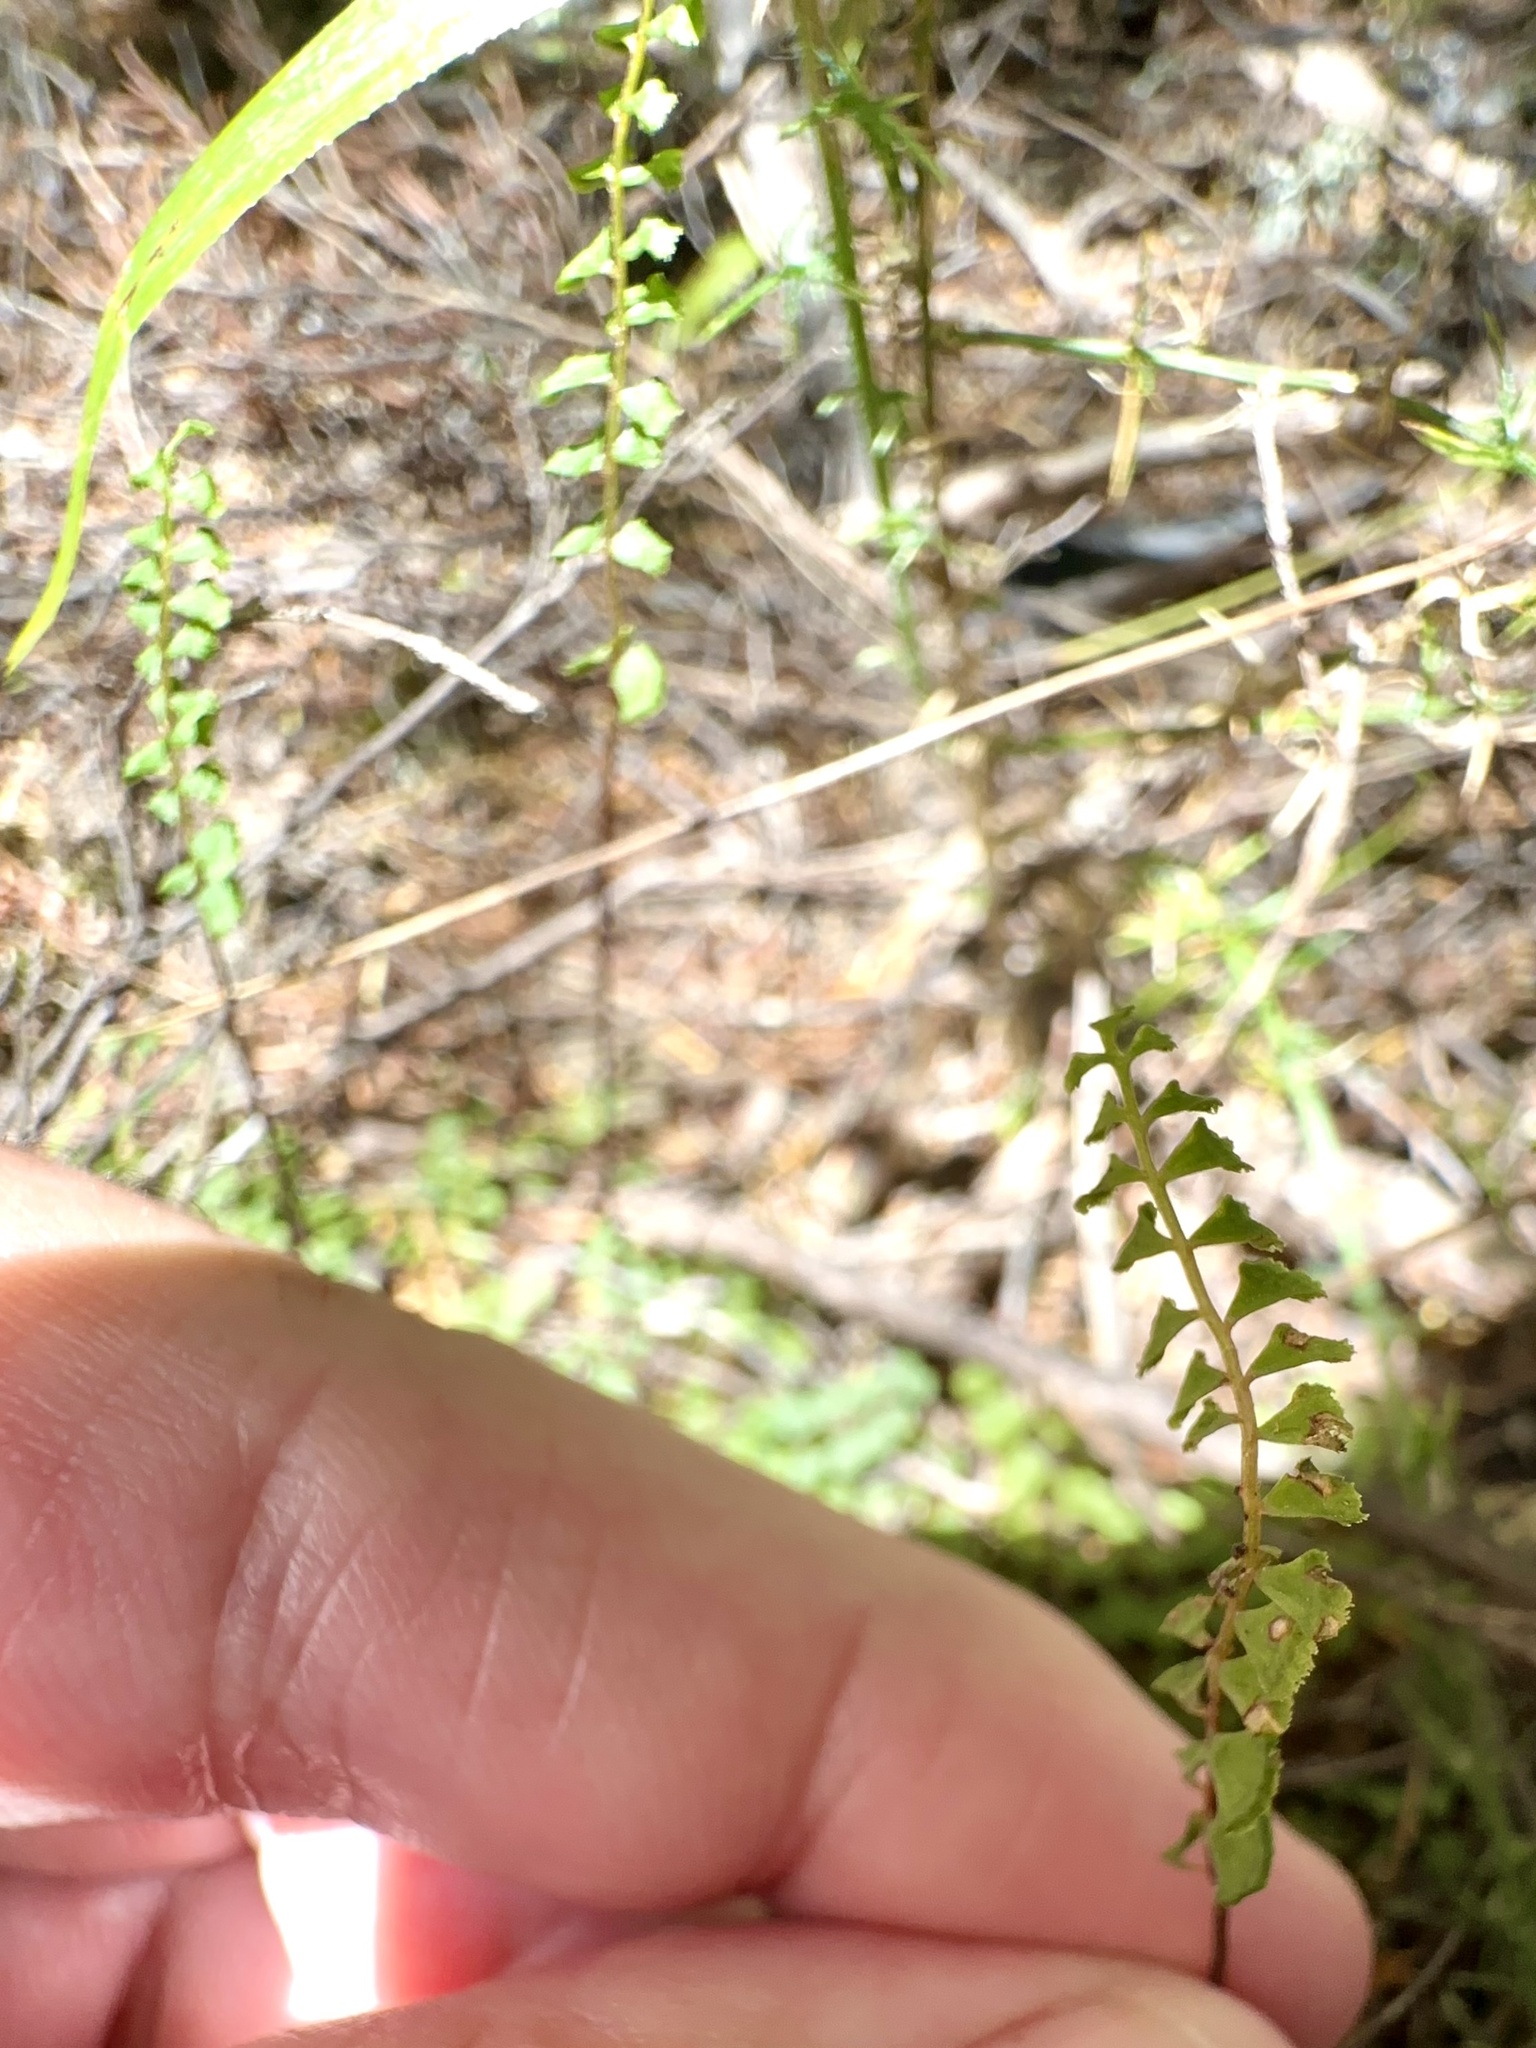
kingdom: Plantae
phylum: Tracheophyta
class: Polypodiopsida
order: Polypodiales
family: Lindsaeaceae
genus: Lindsaea
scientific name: Lindsaea linearis
